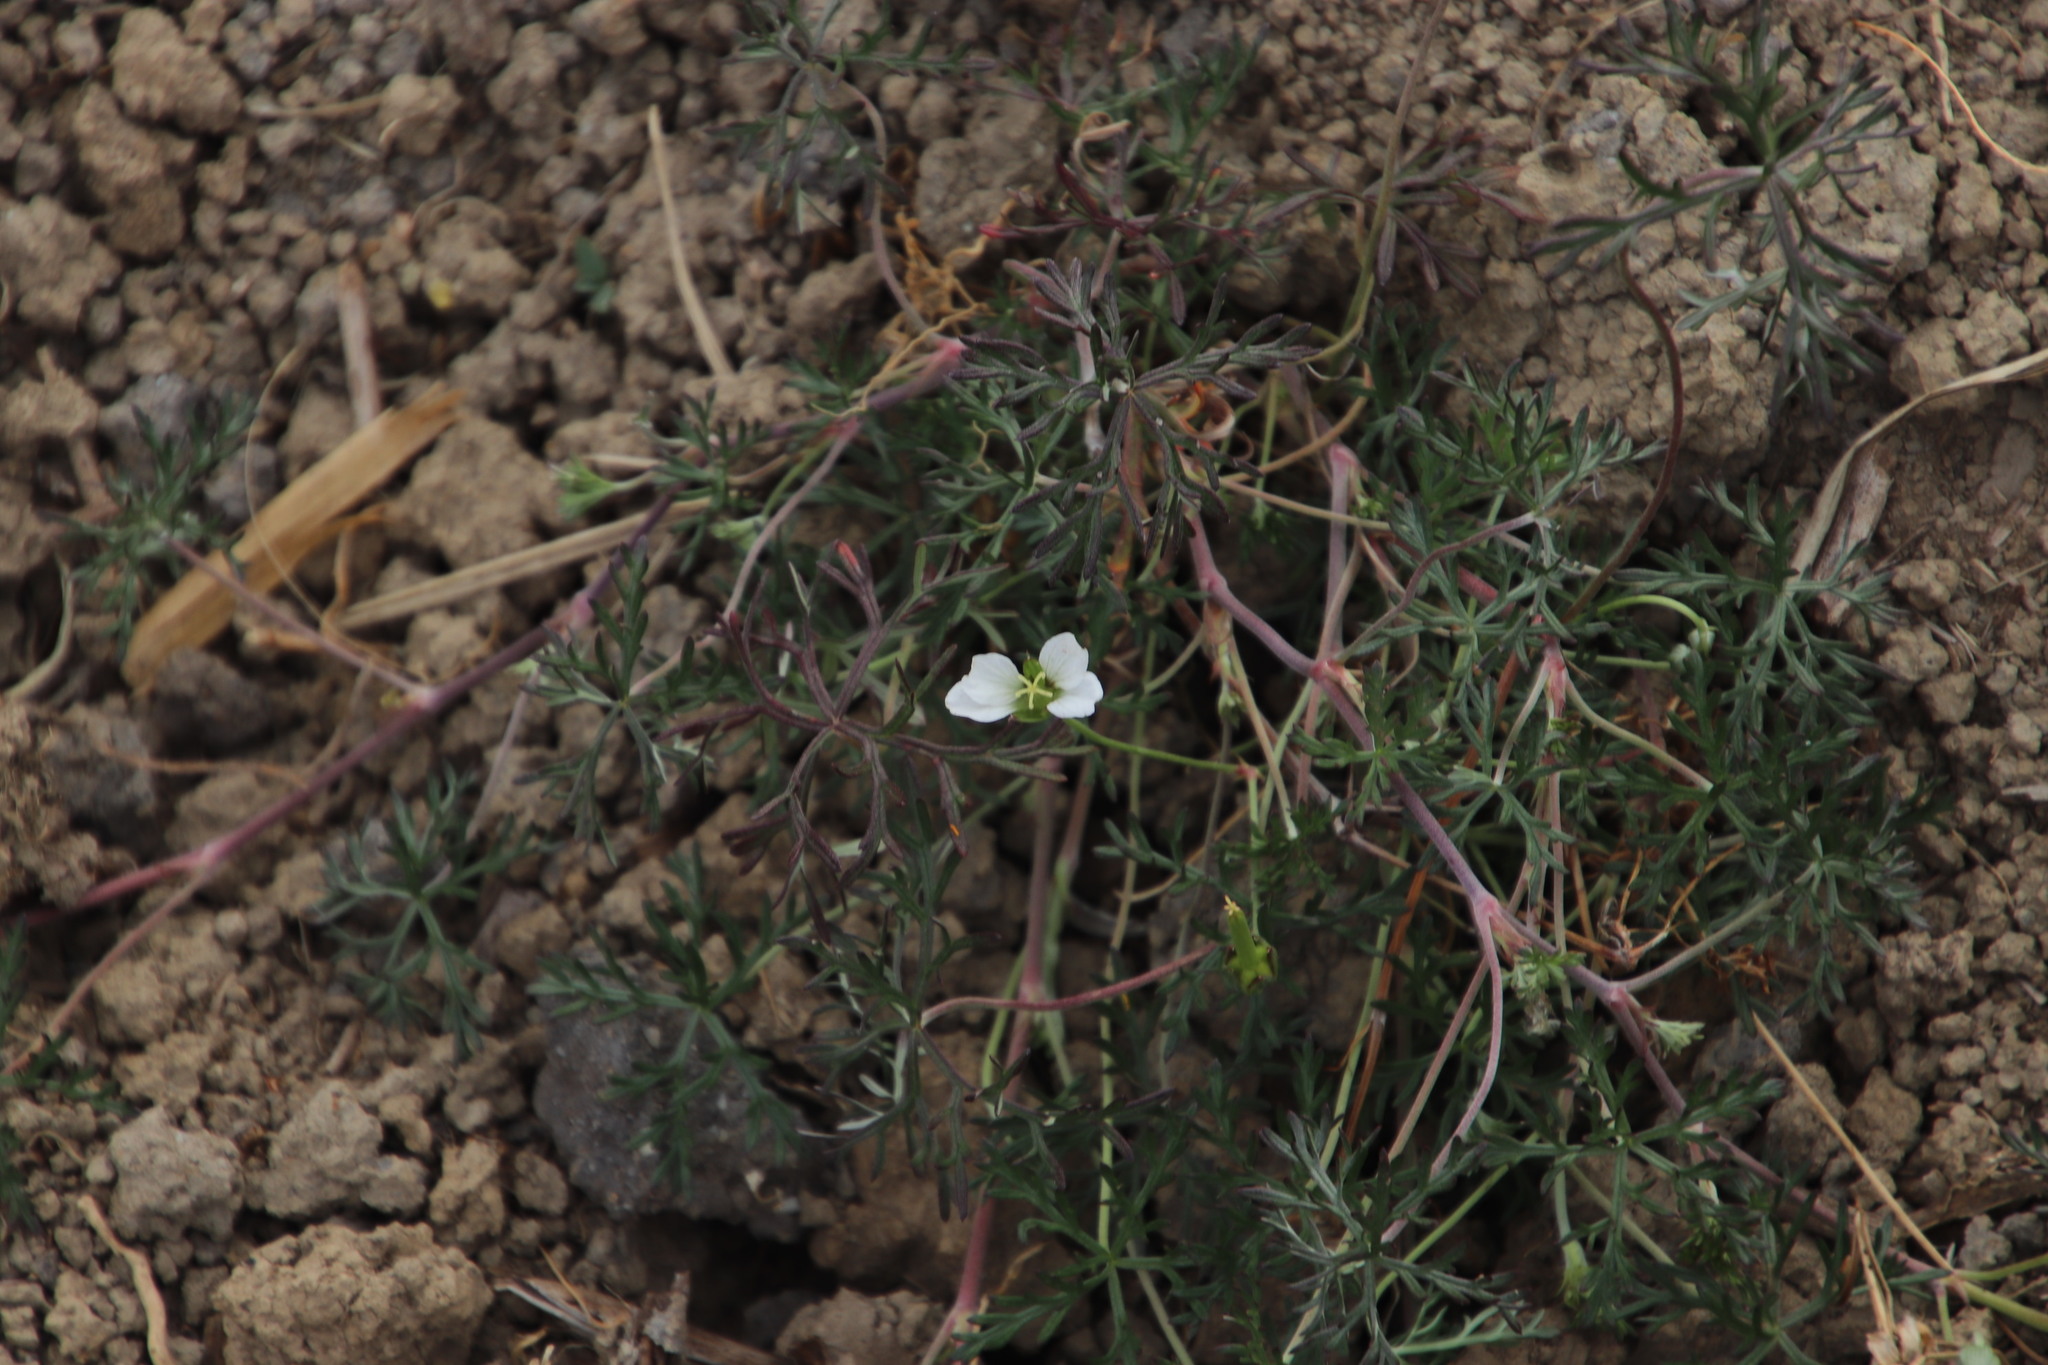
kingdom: Plantae
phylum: Tracheophyta
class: Magnoliopsida
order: Geraniales
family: Geraniaceae
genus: Geranium
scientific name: Geranium incanum
